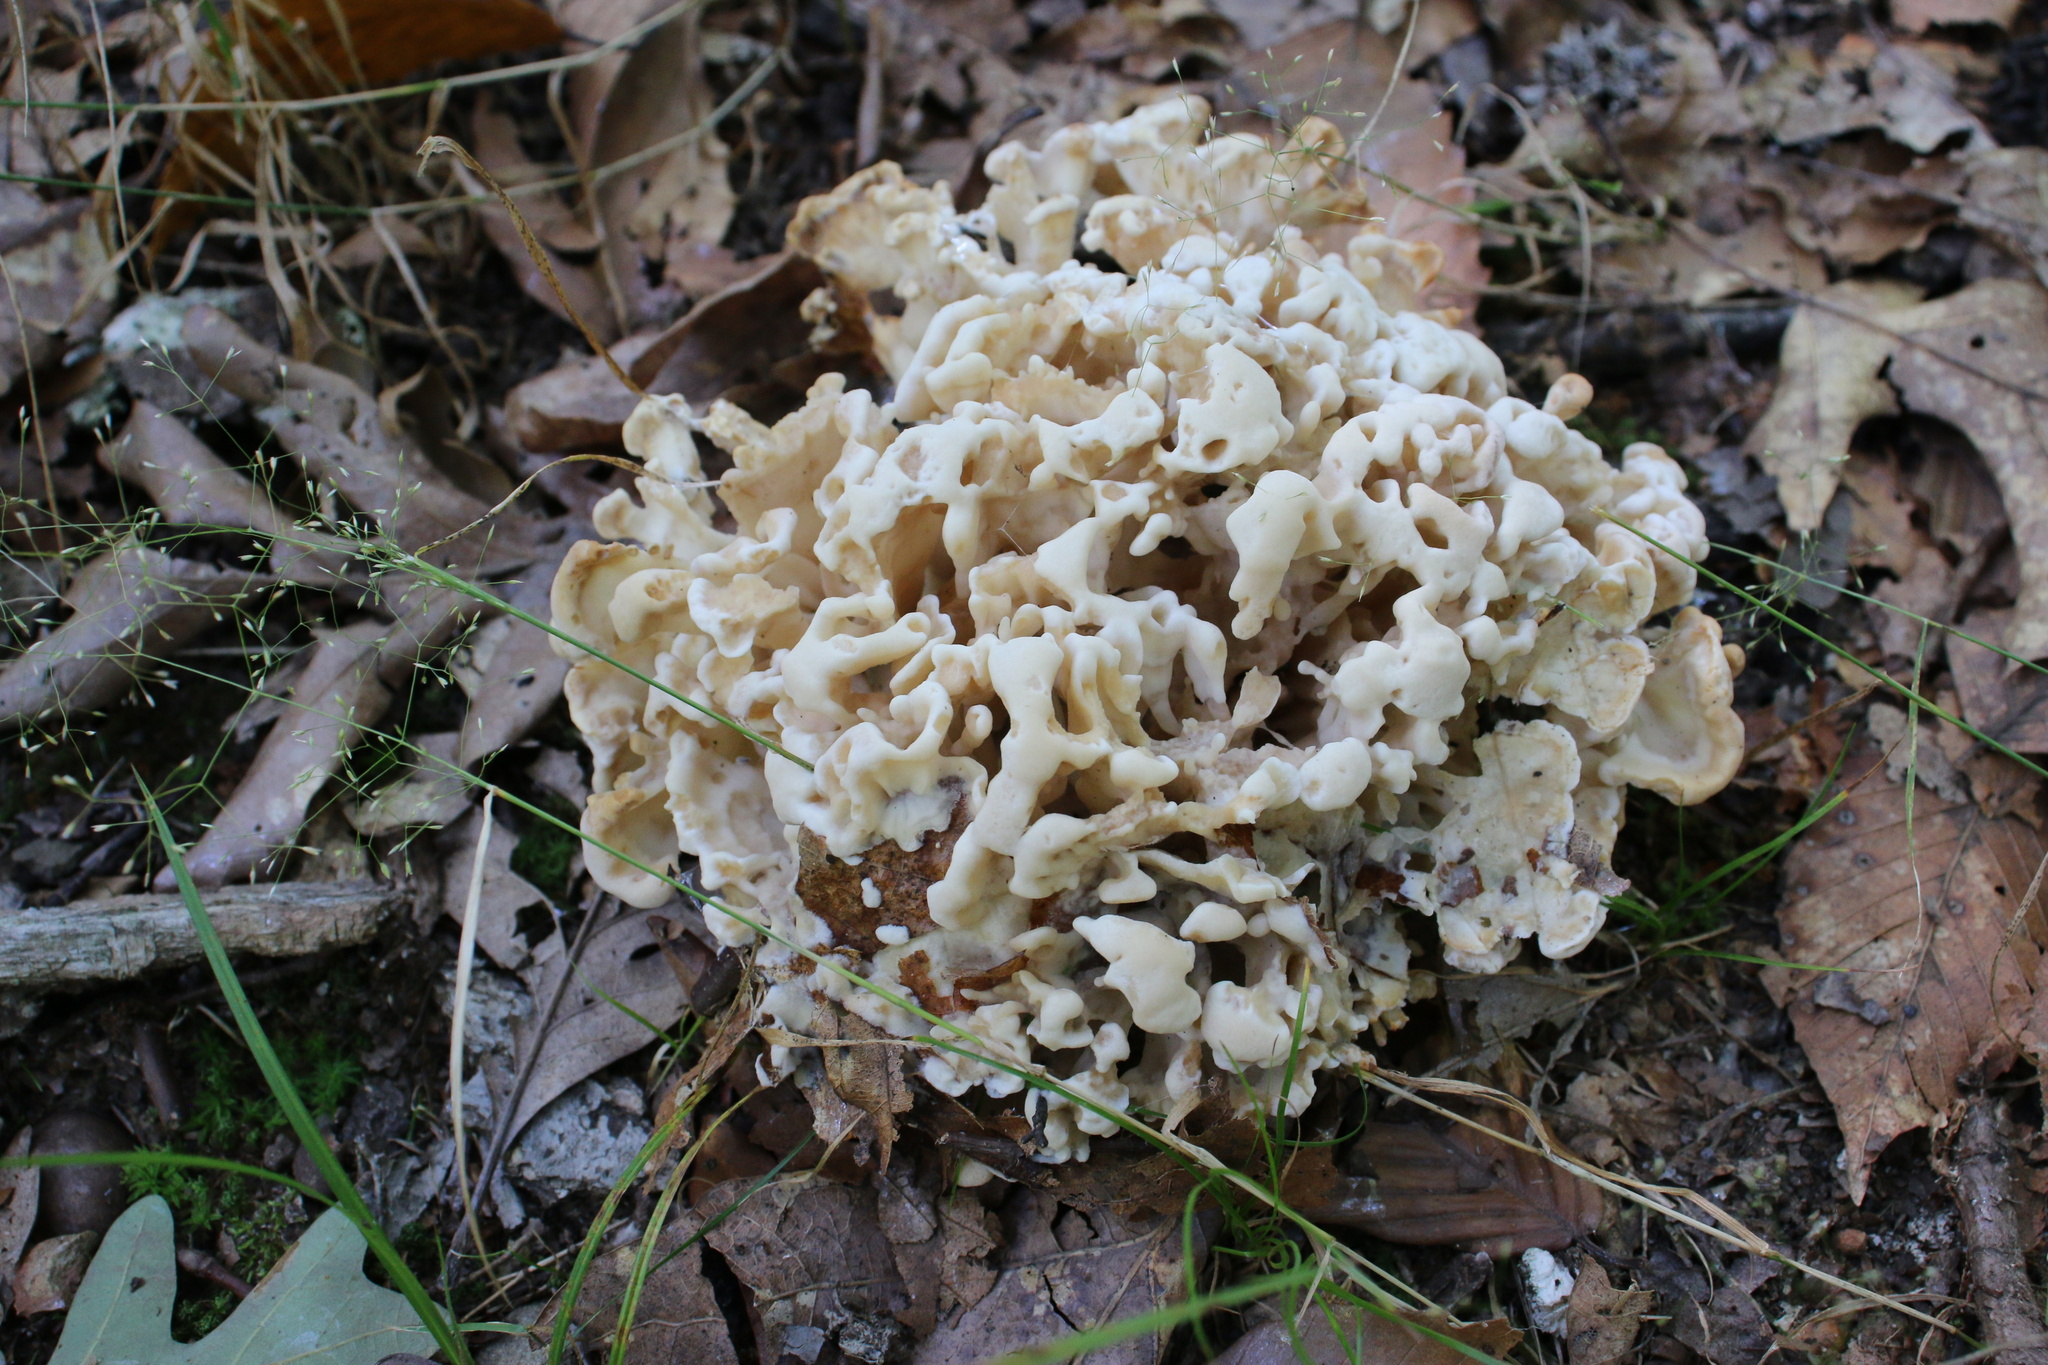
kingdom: Fungi
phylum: Basidiomycota
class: Agaricomycetes
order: Polyporales
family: Sparassidaceae
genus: Sparassis
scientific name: Sparassis spathulata
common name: Eastern cauliflower mushroom
